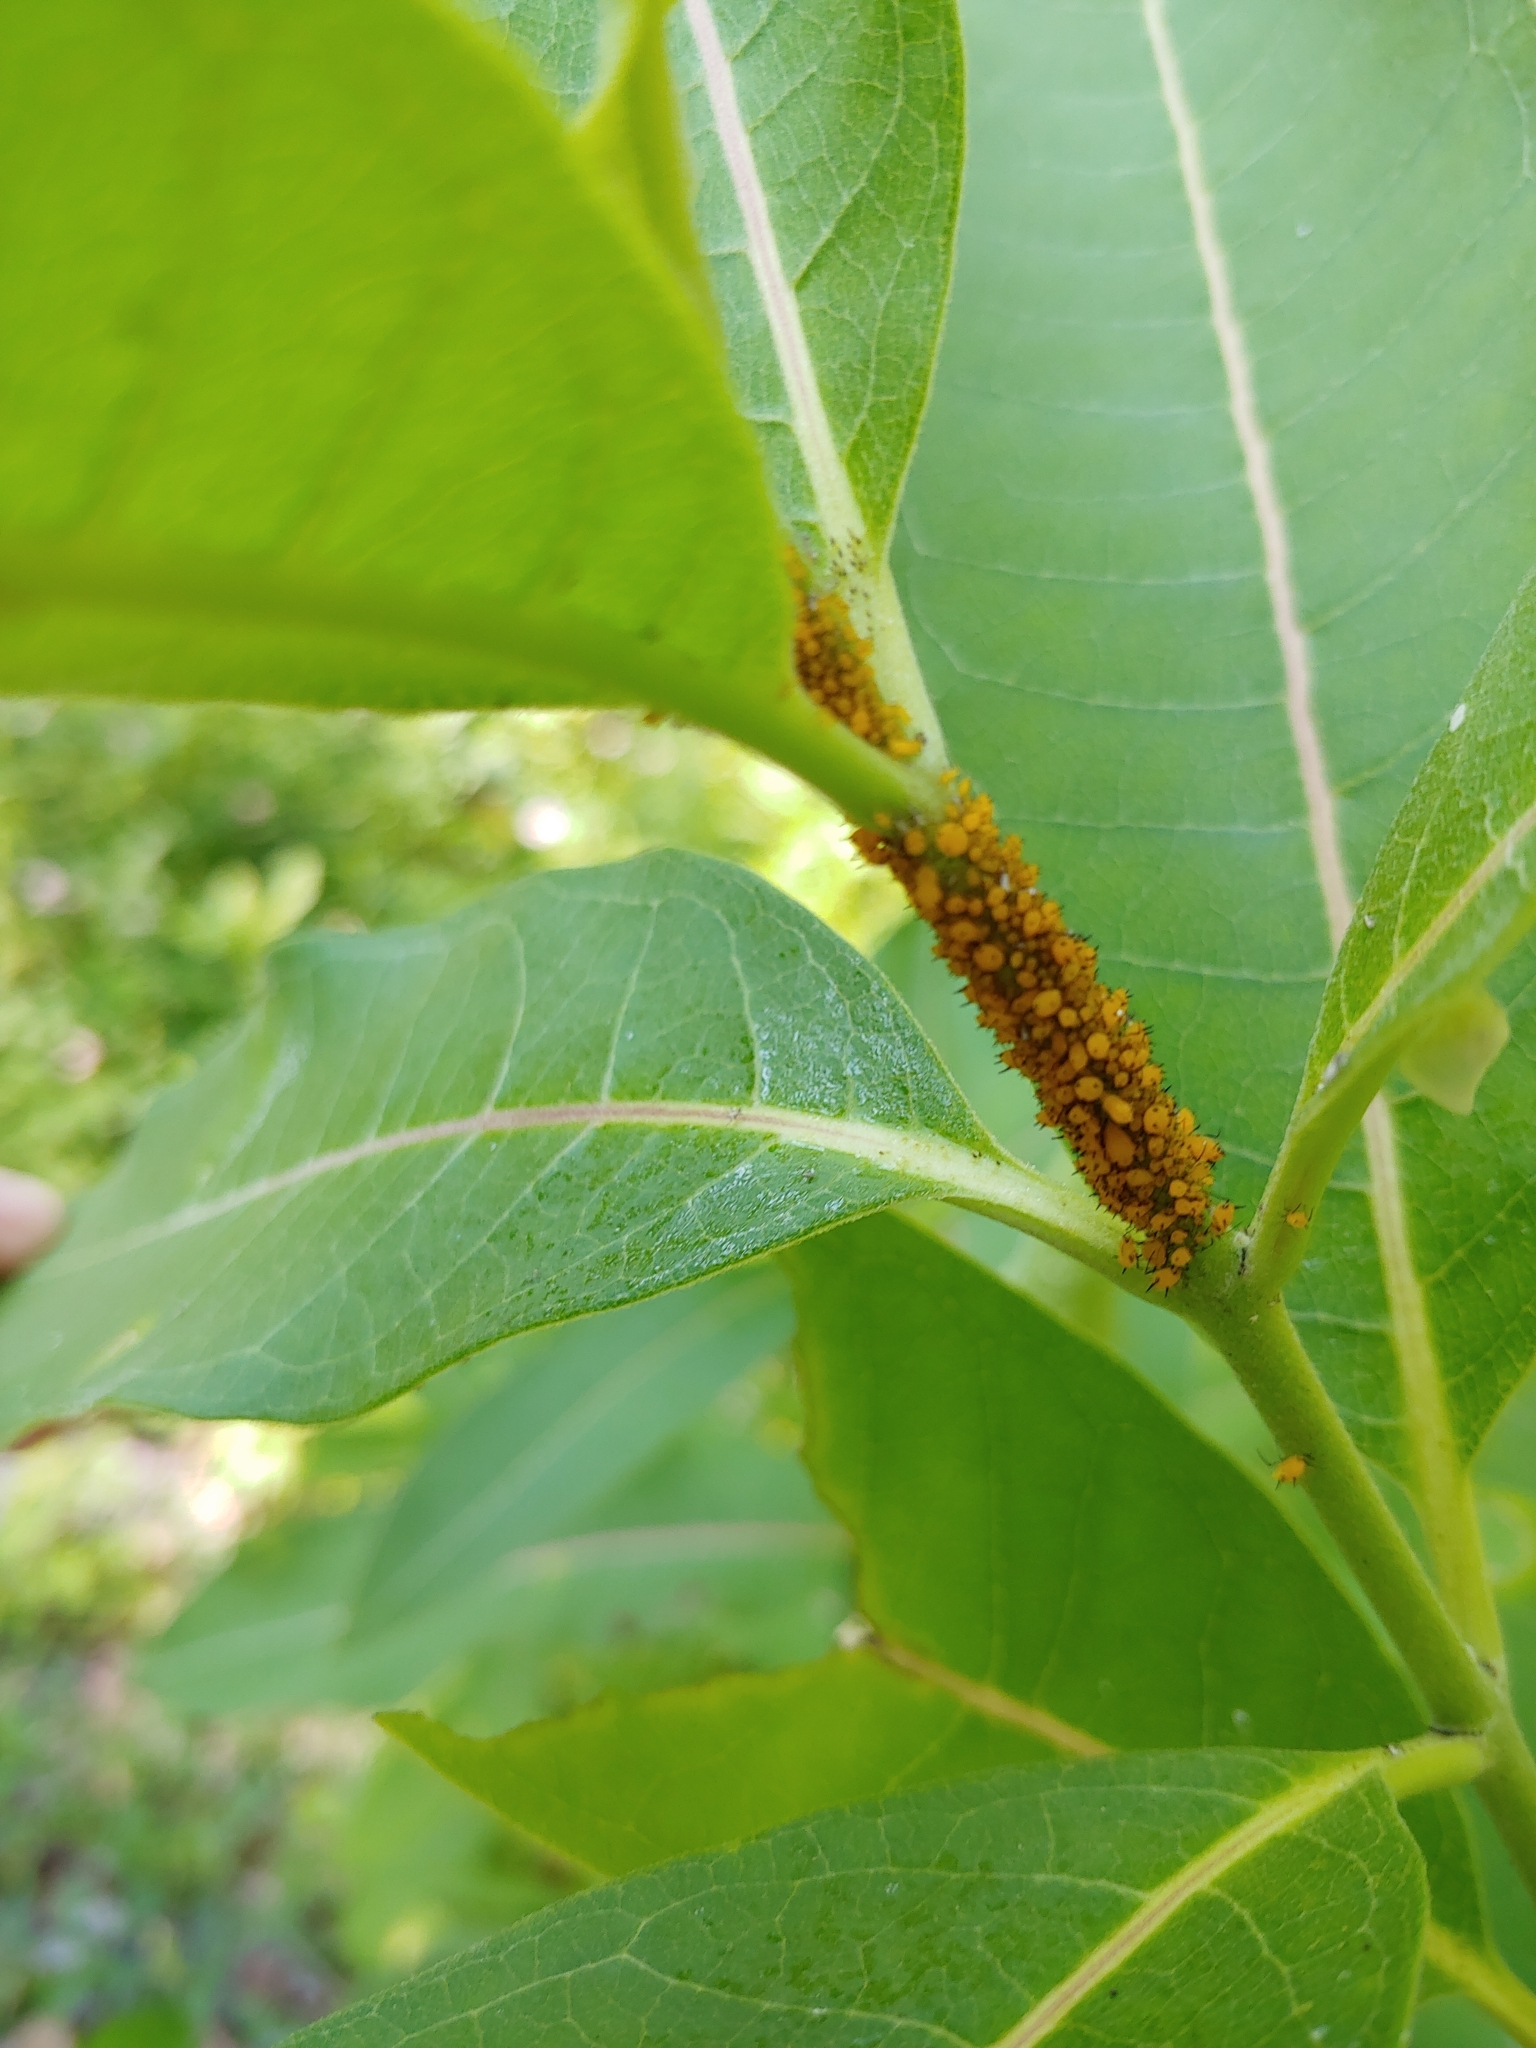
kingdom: Animalia
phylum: Arthropoda
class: Insecta
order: Hemiptera
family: Aphididae
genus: Aphis
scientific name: Aphis nerii
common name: Oleander aphid
